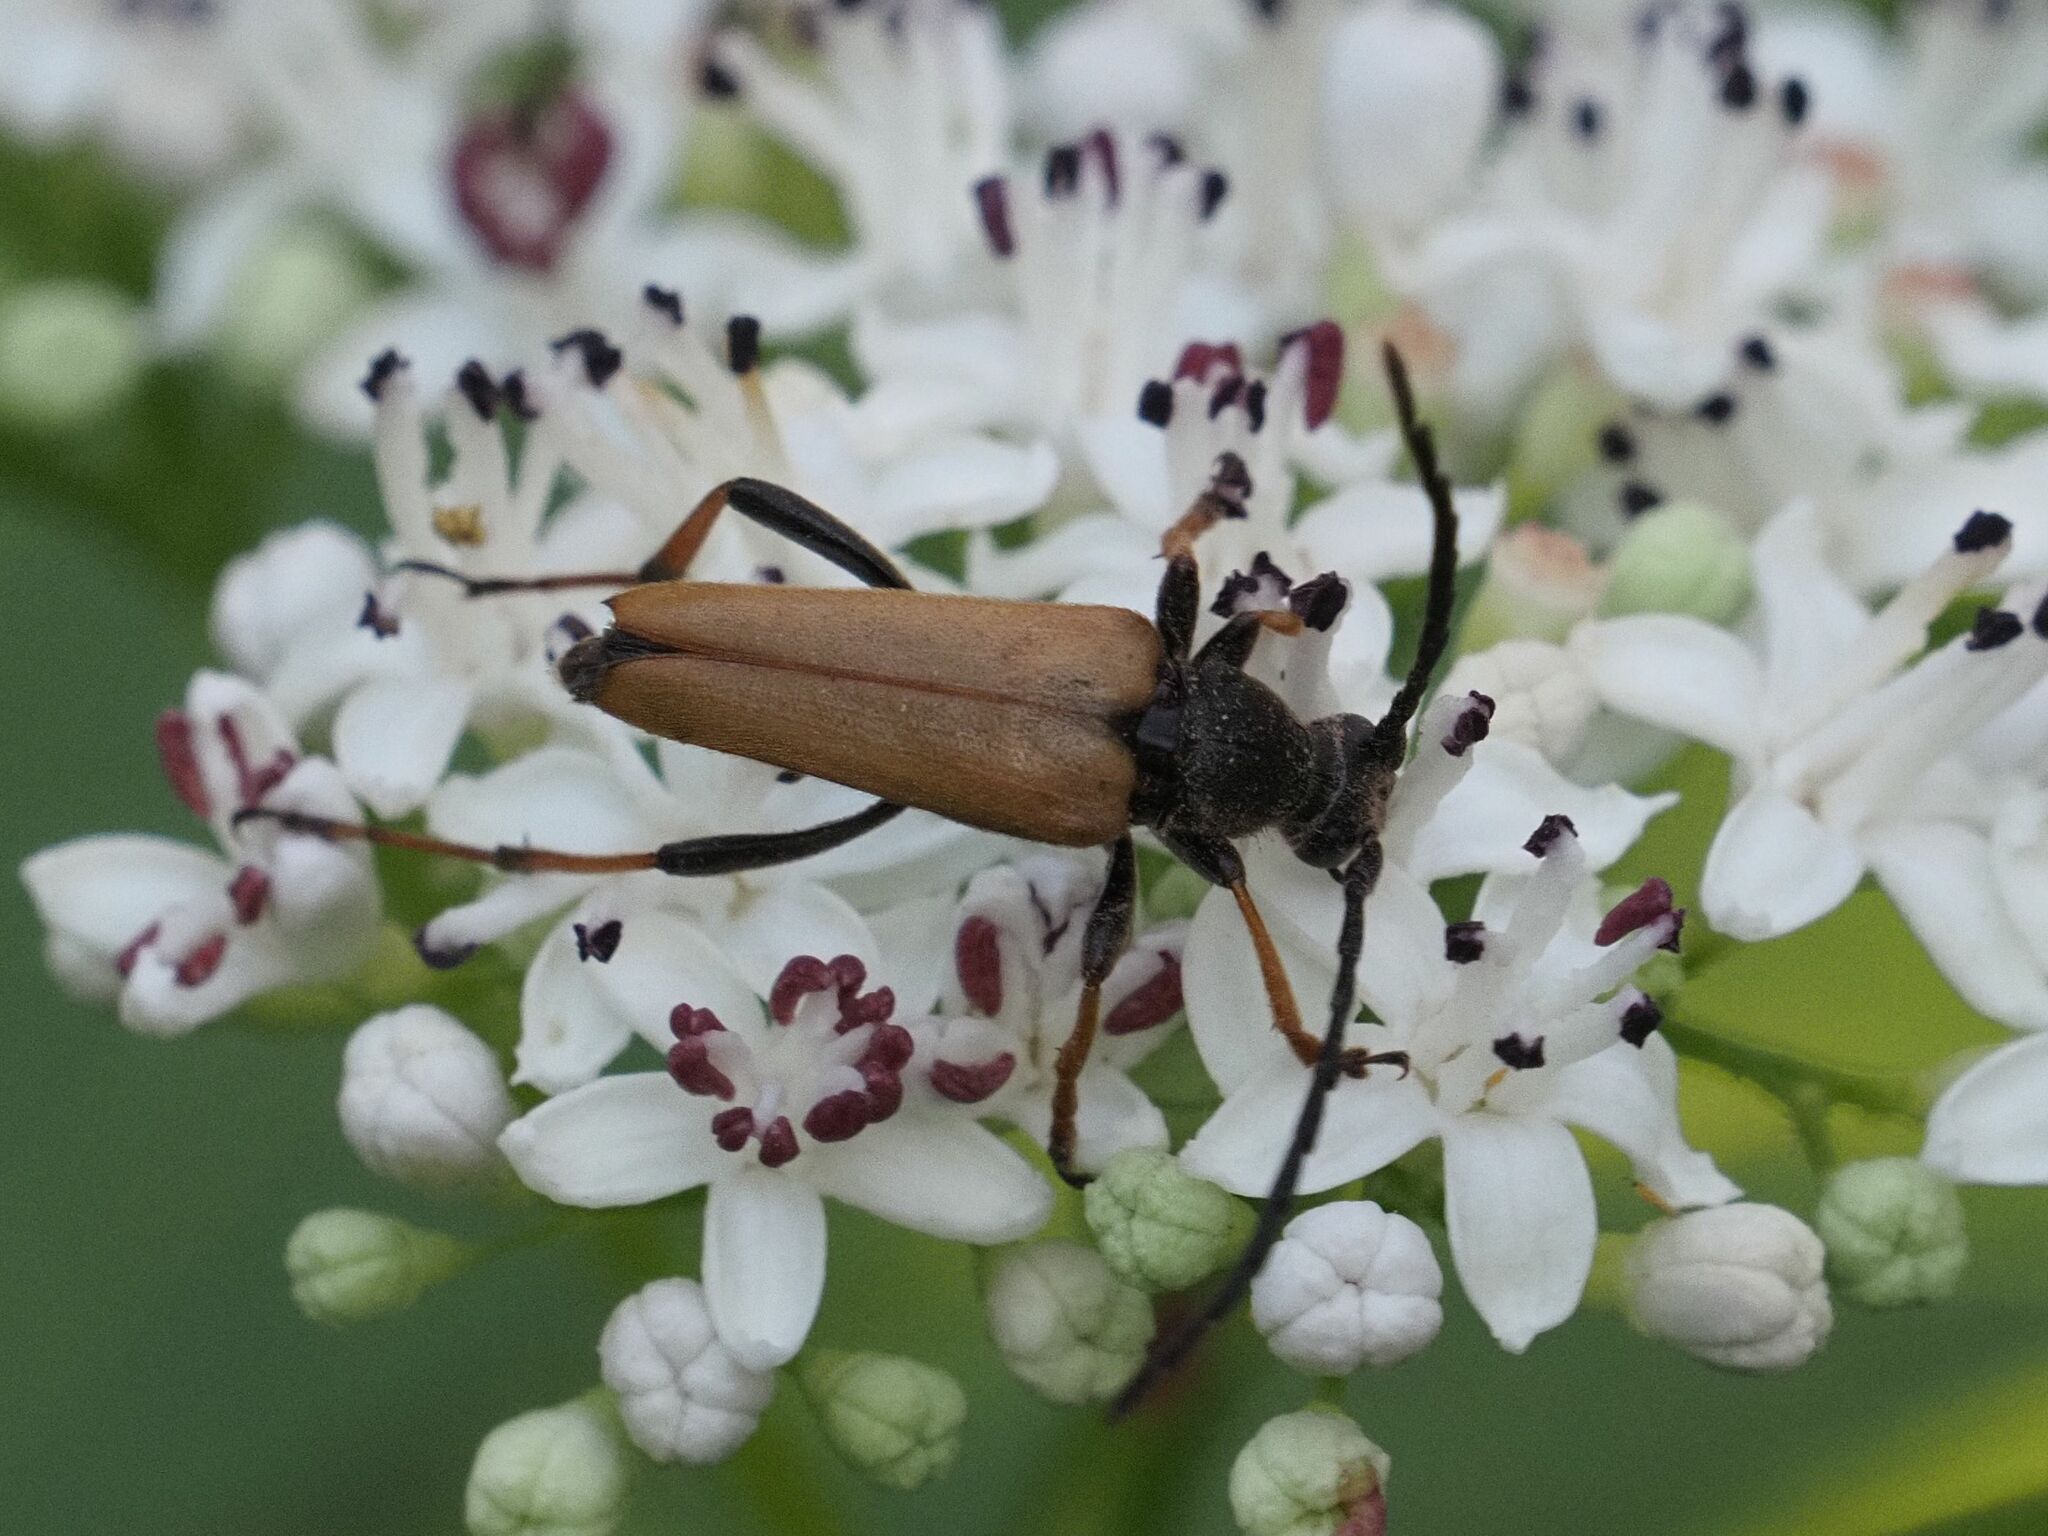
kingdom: Animalia
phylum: Arthropoda
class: Insecta
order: Coleoptera
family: Cerambycidae
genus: Stictoleptura
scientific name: Stictoleptura rubra
